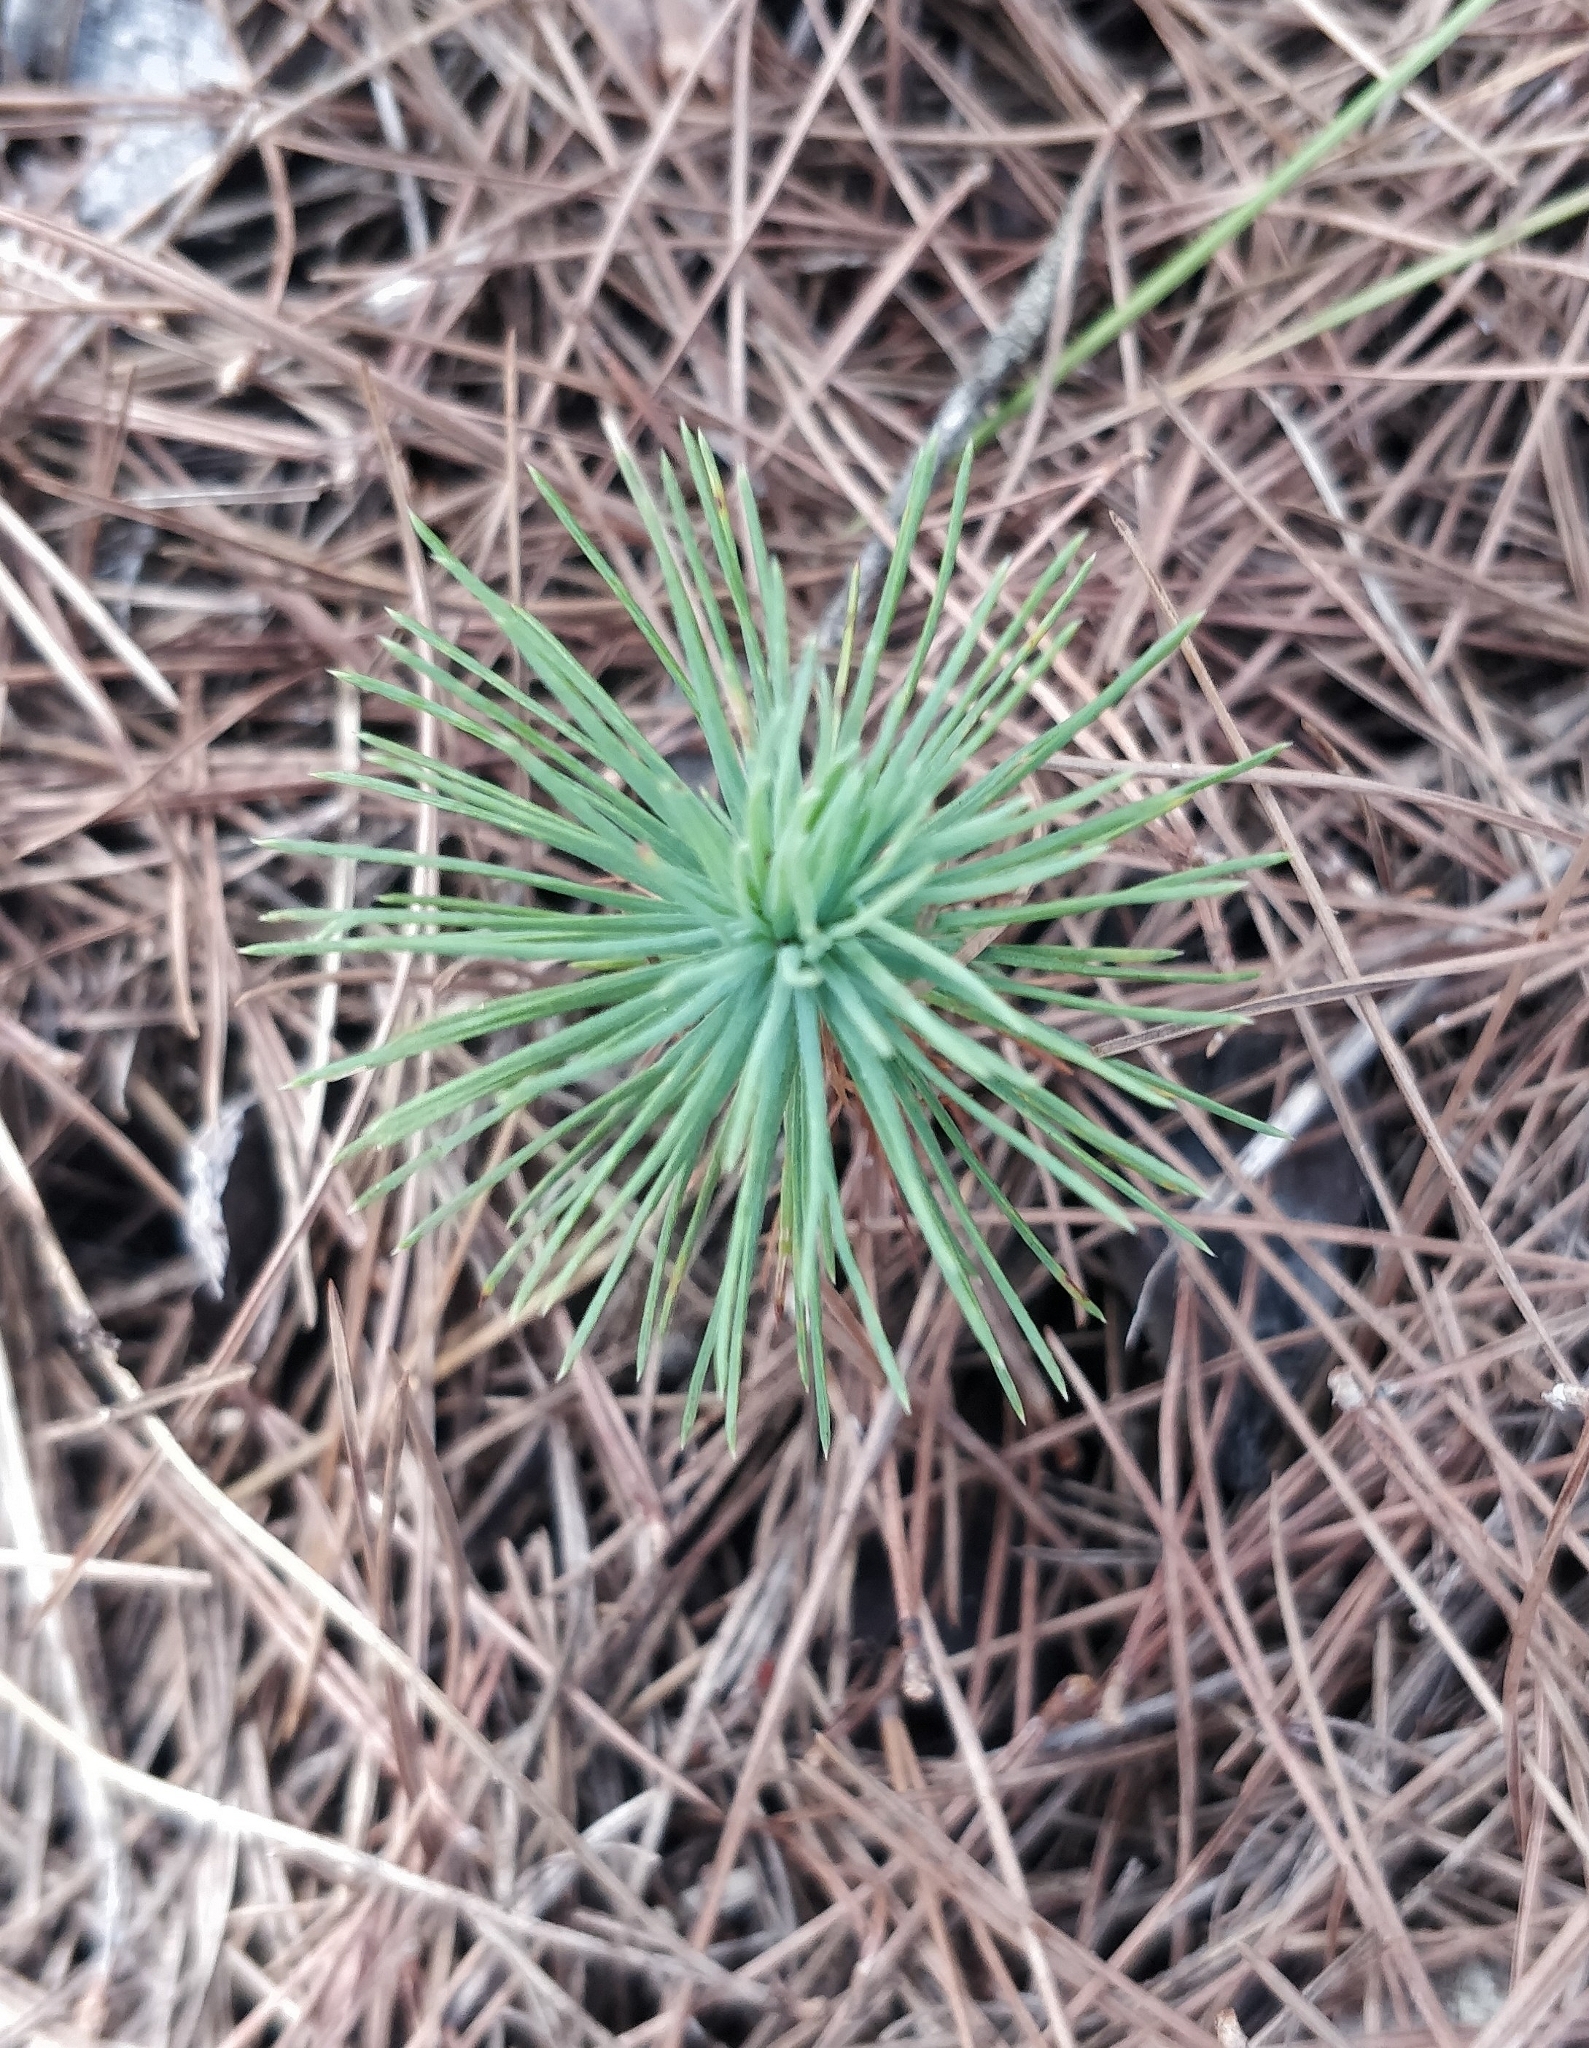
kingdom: Plantae
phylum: Tracheophyta
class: Pinopsida
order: Pinales
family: Pinaceae
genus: Pinus
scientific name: Pinus halepensis
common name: Aleppo pine
